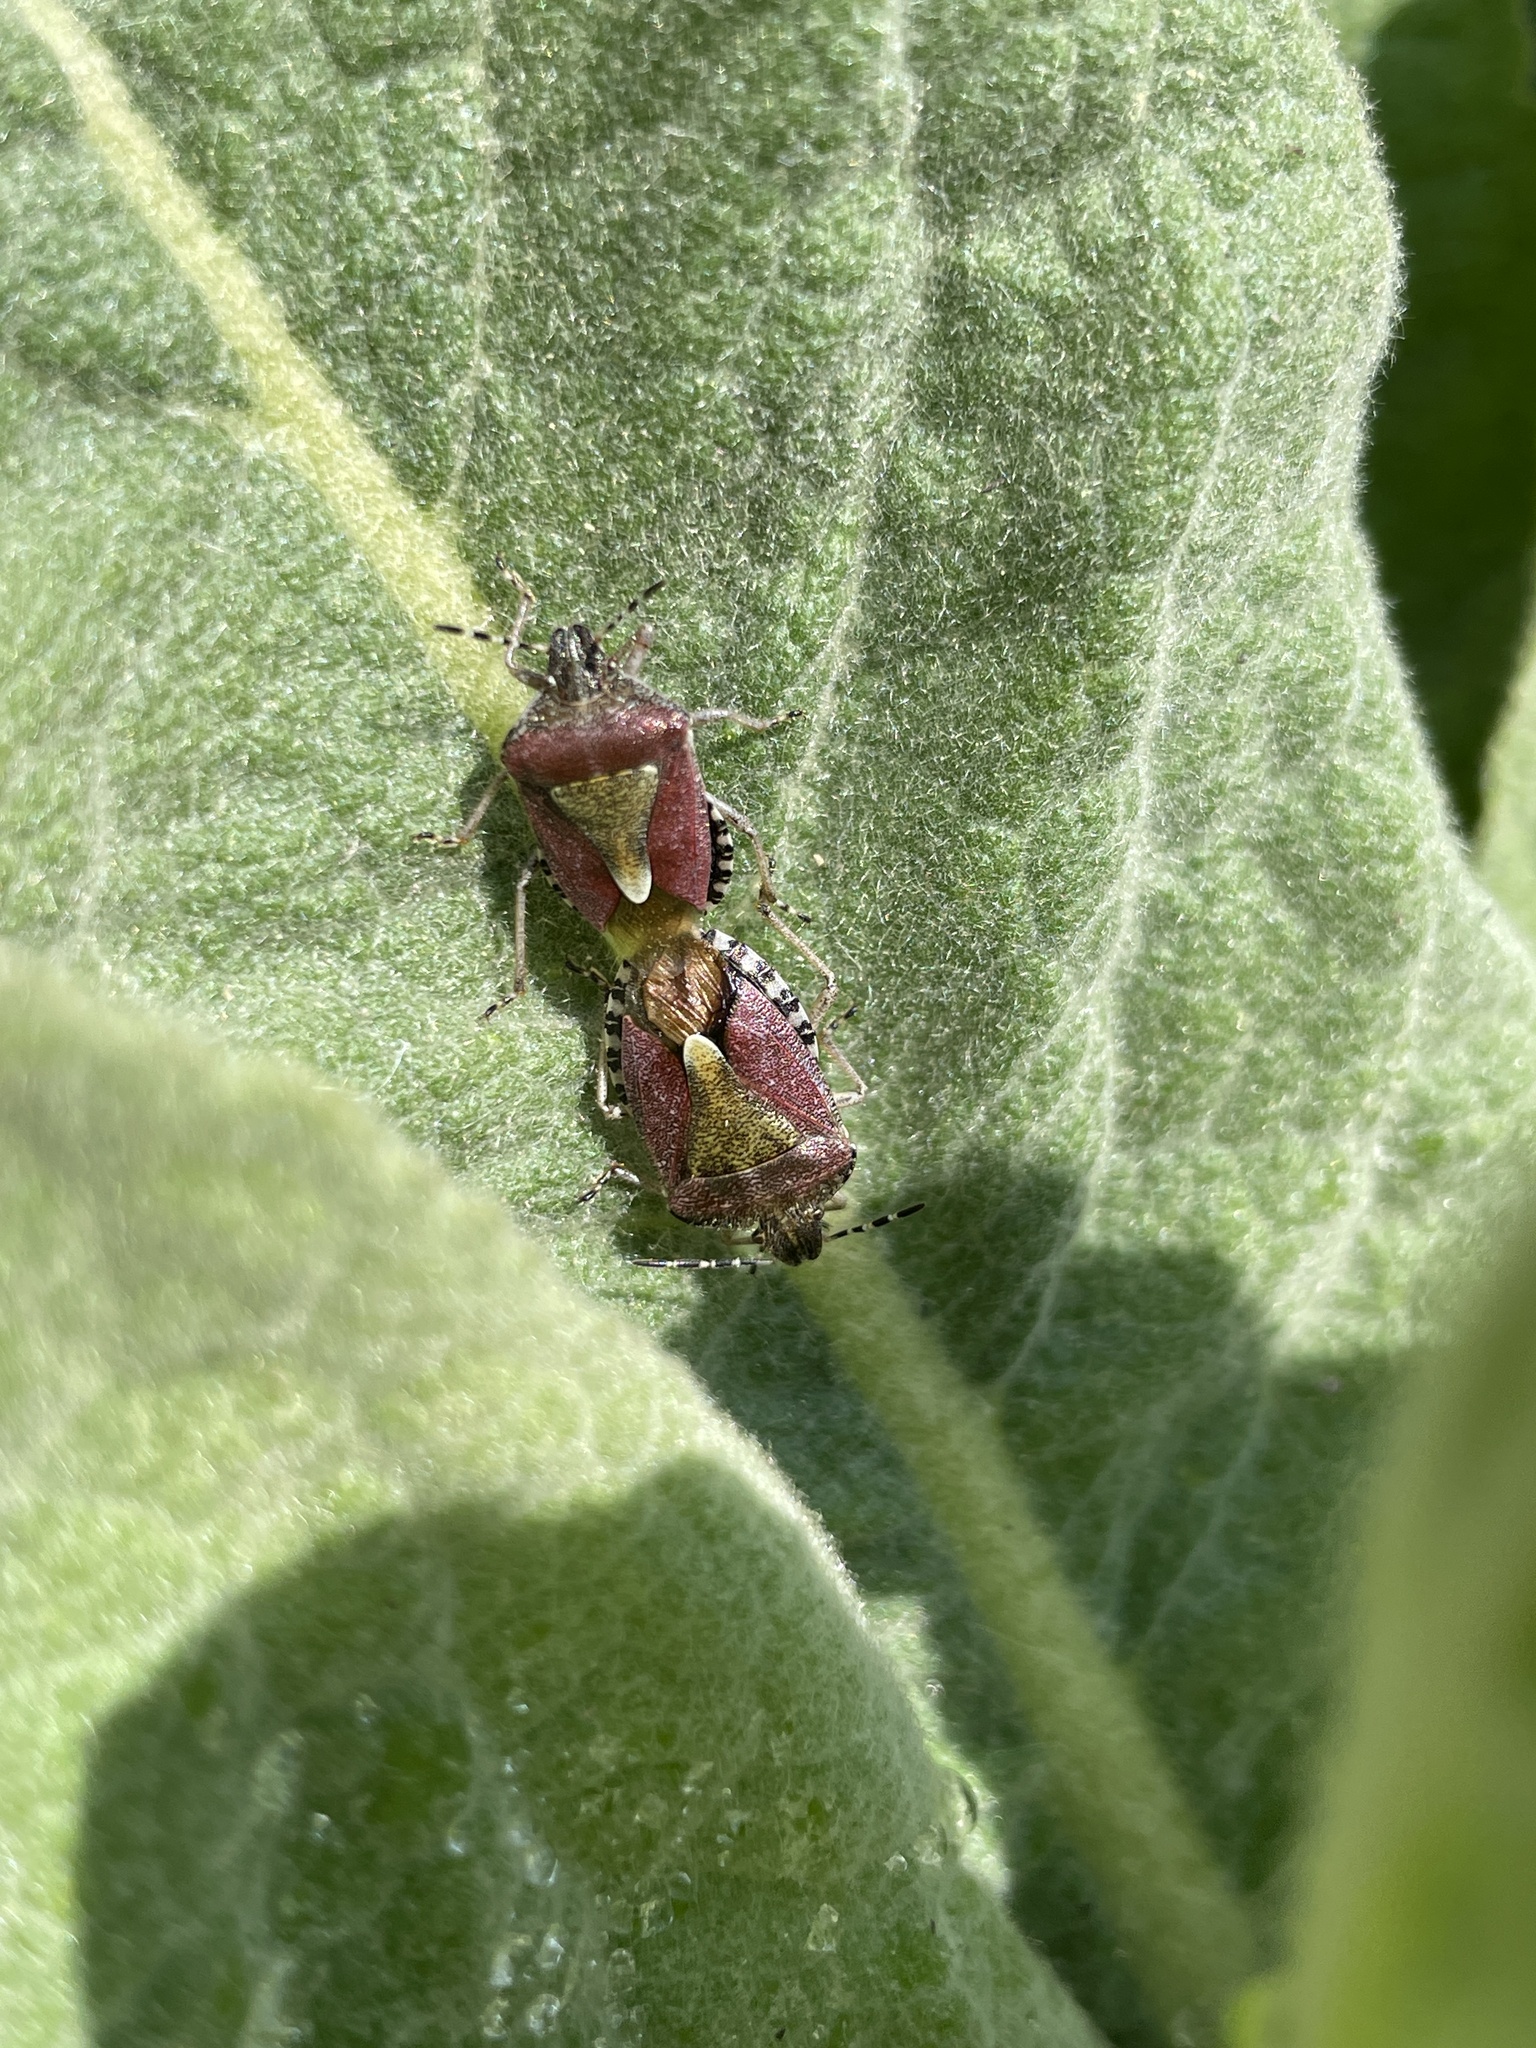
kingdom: Animalia
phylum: Arthropoda
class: Insecta
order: Hemiptera
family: Pentatomidae
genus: Dolycoris
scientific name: Dolycoris baccarum
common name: Sloe bug
